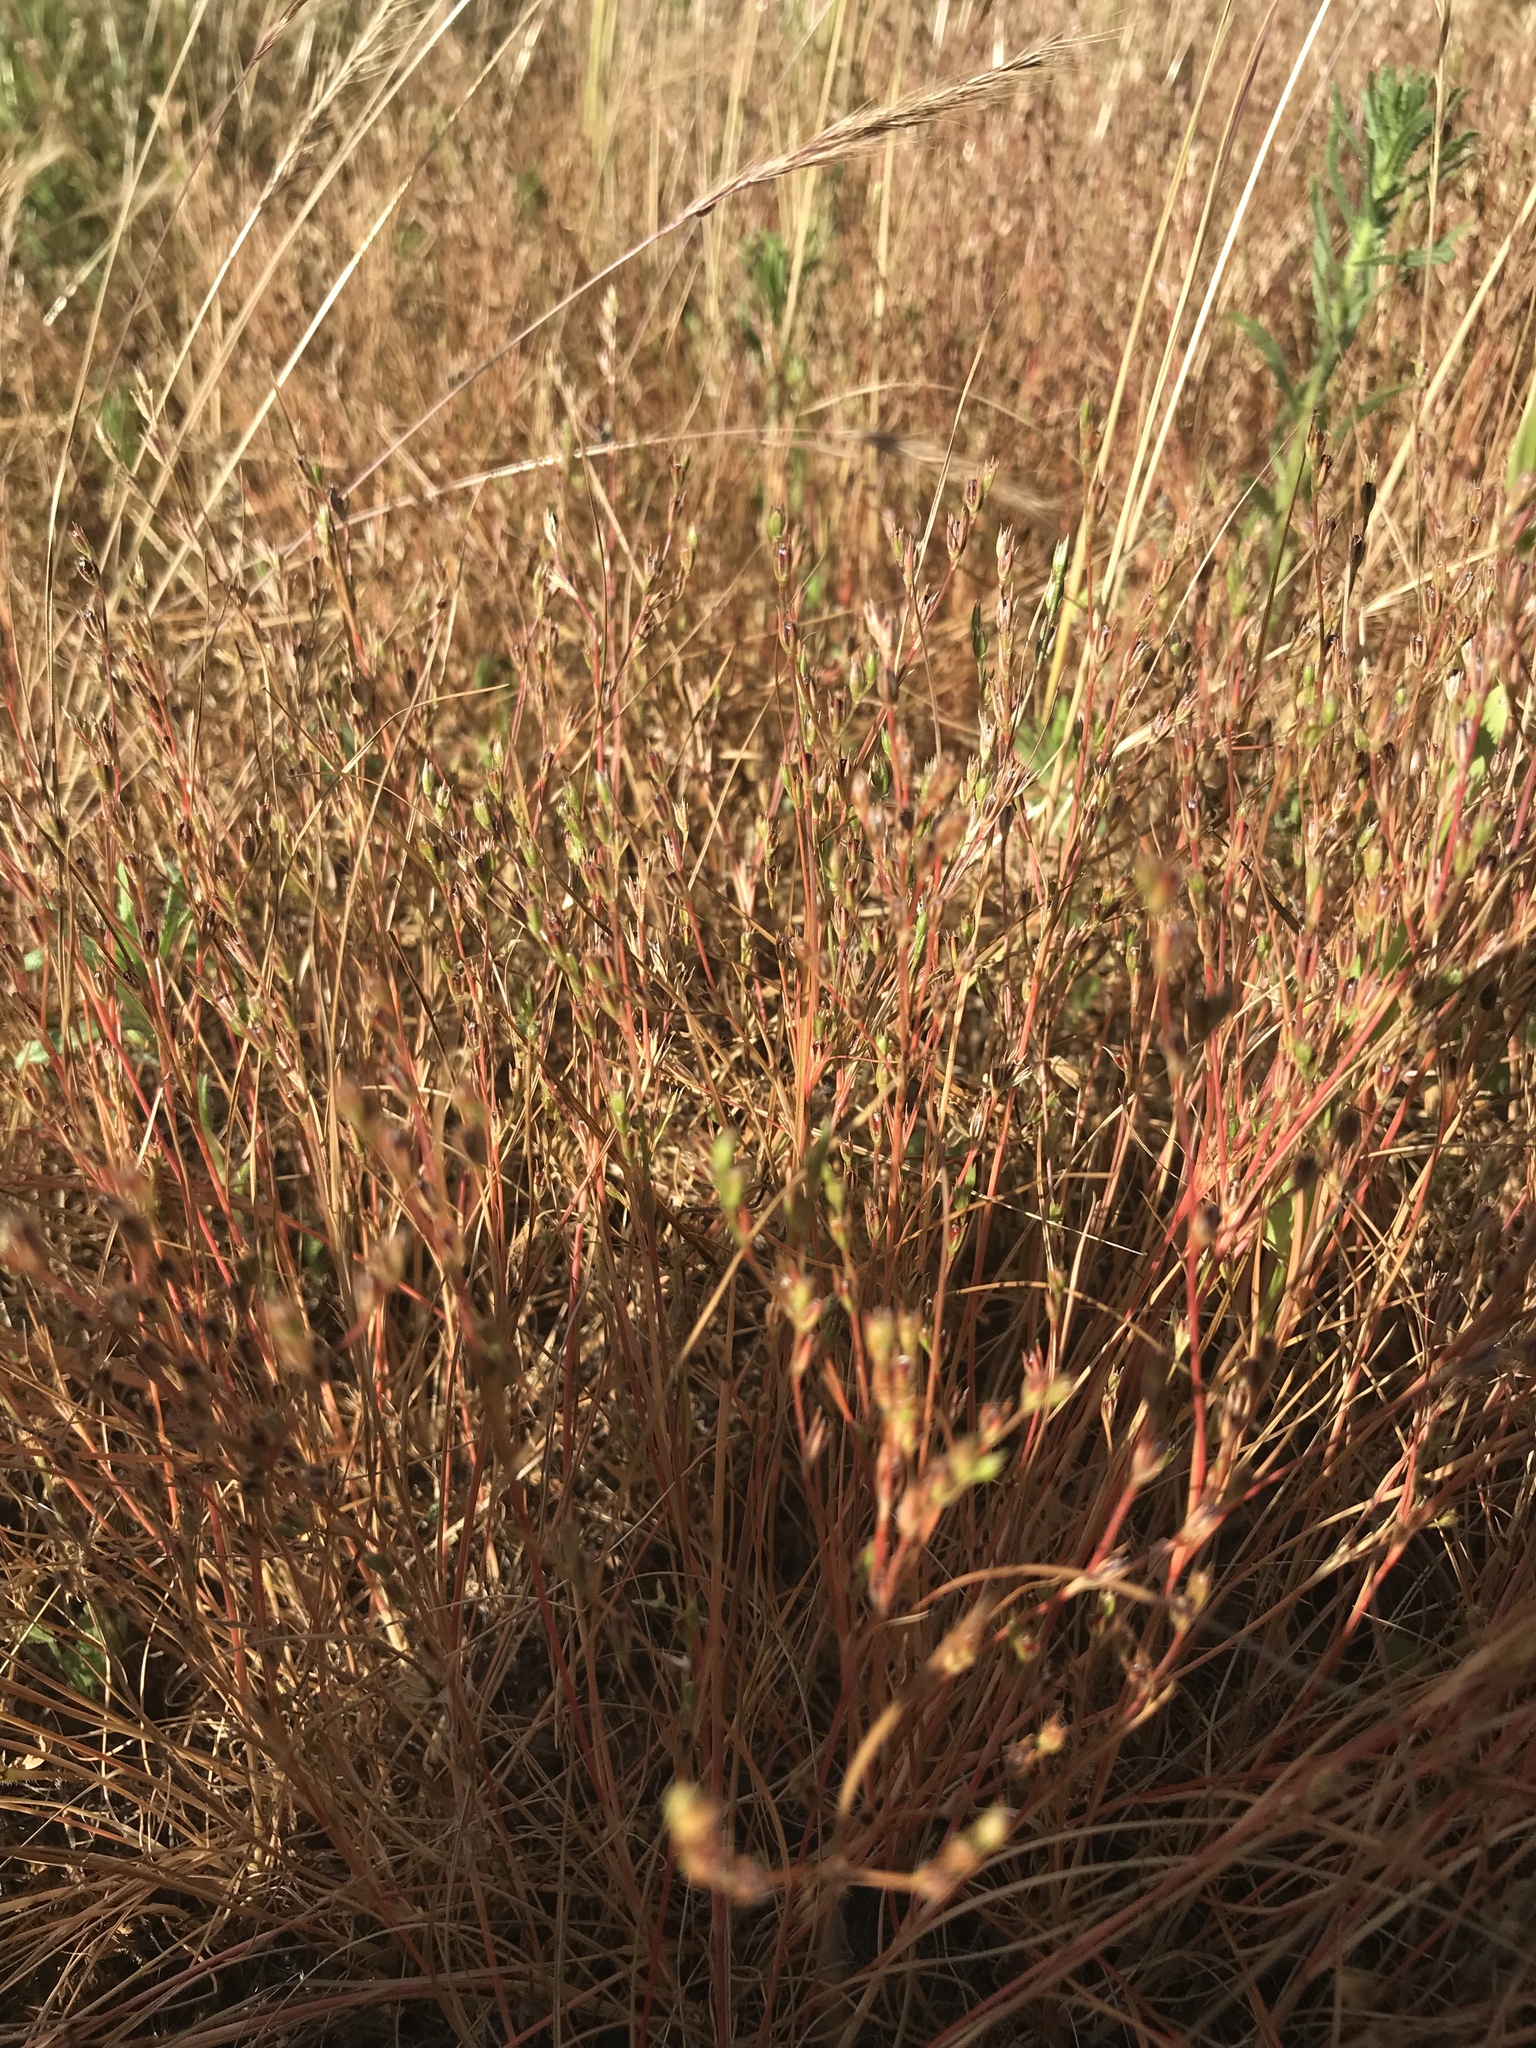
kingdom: Plantae
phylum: Tracheophyta
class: Liliopsida
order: Poales
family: Juncaceae
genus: Juncus
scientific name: Juncus bufonius
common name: Toad rush
